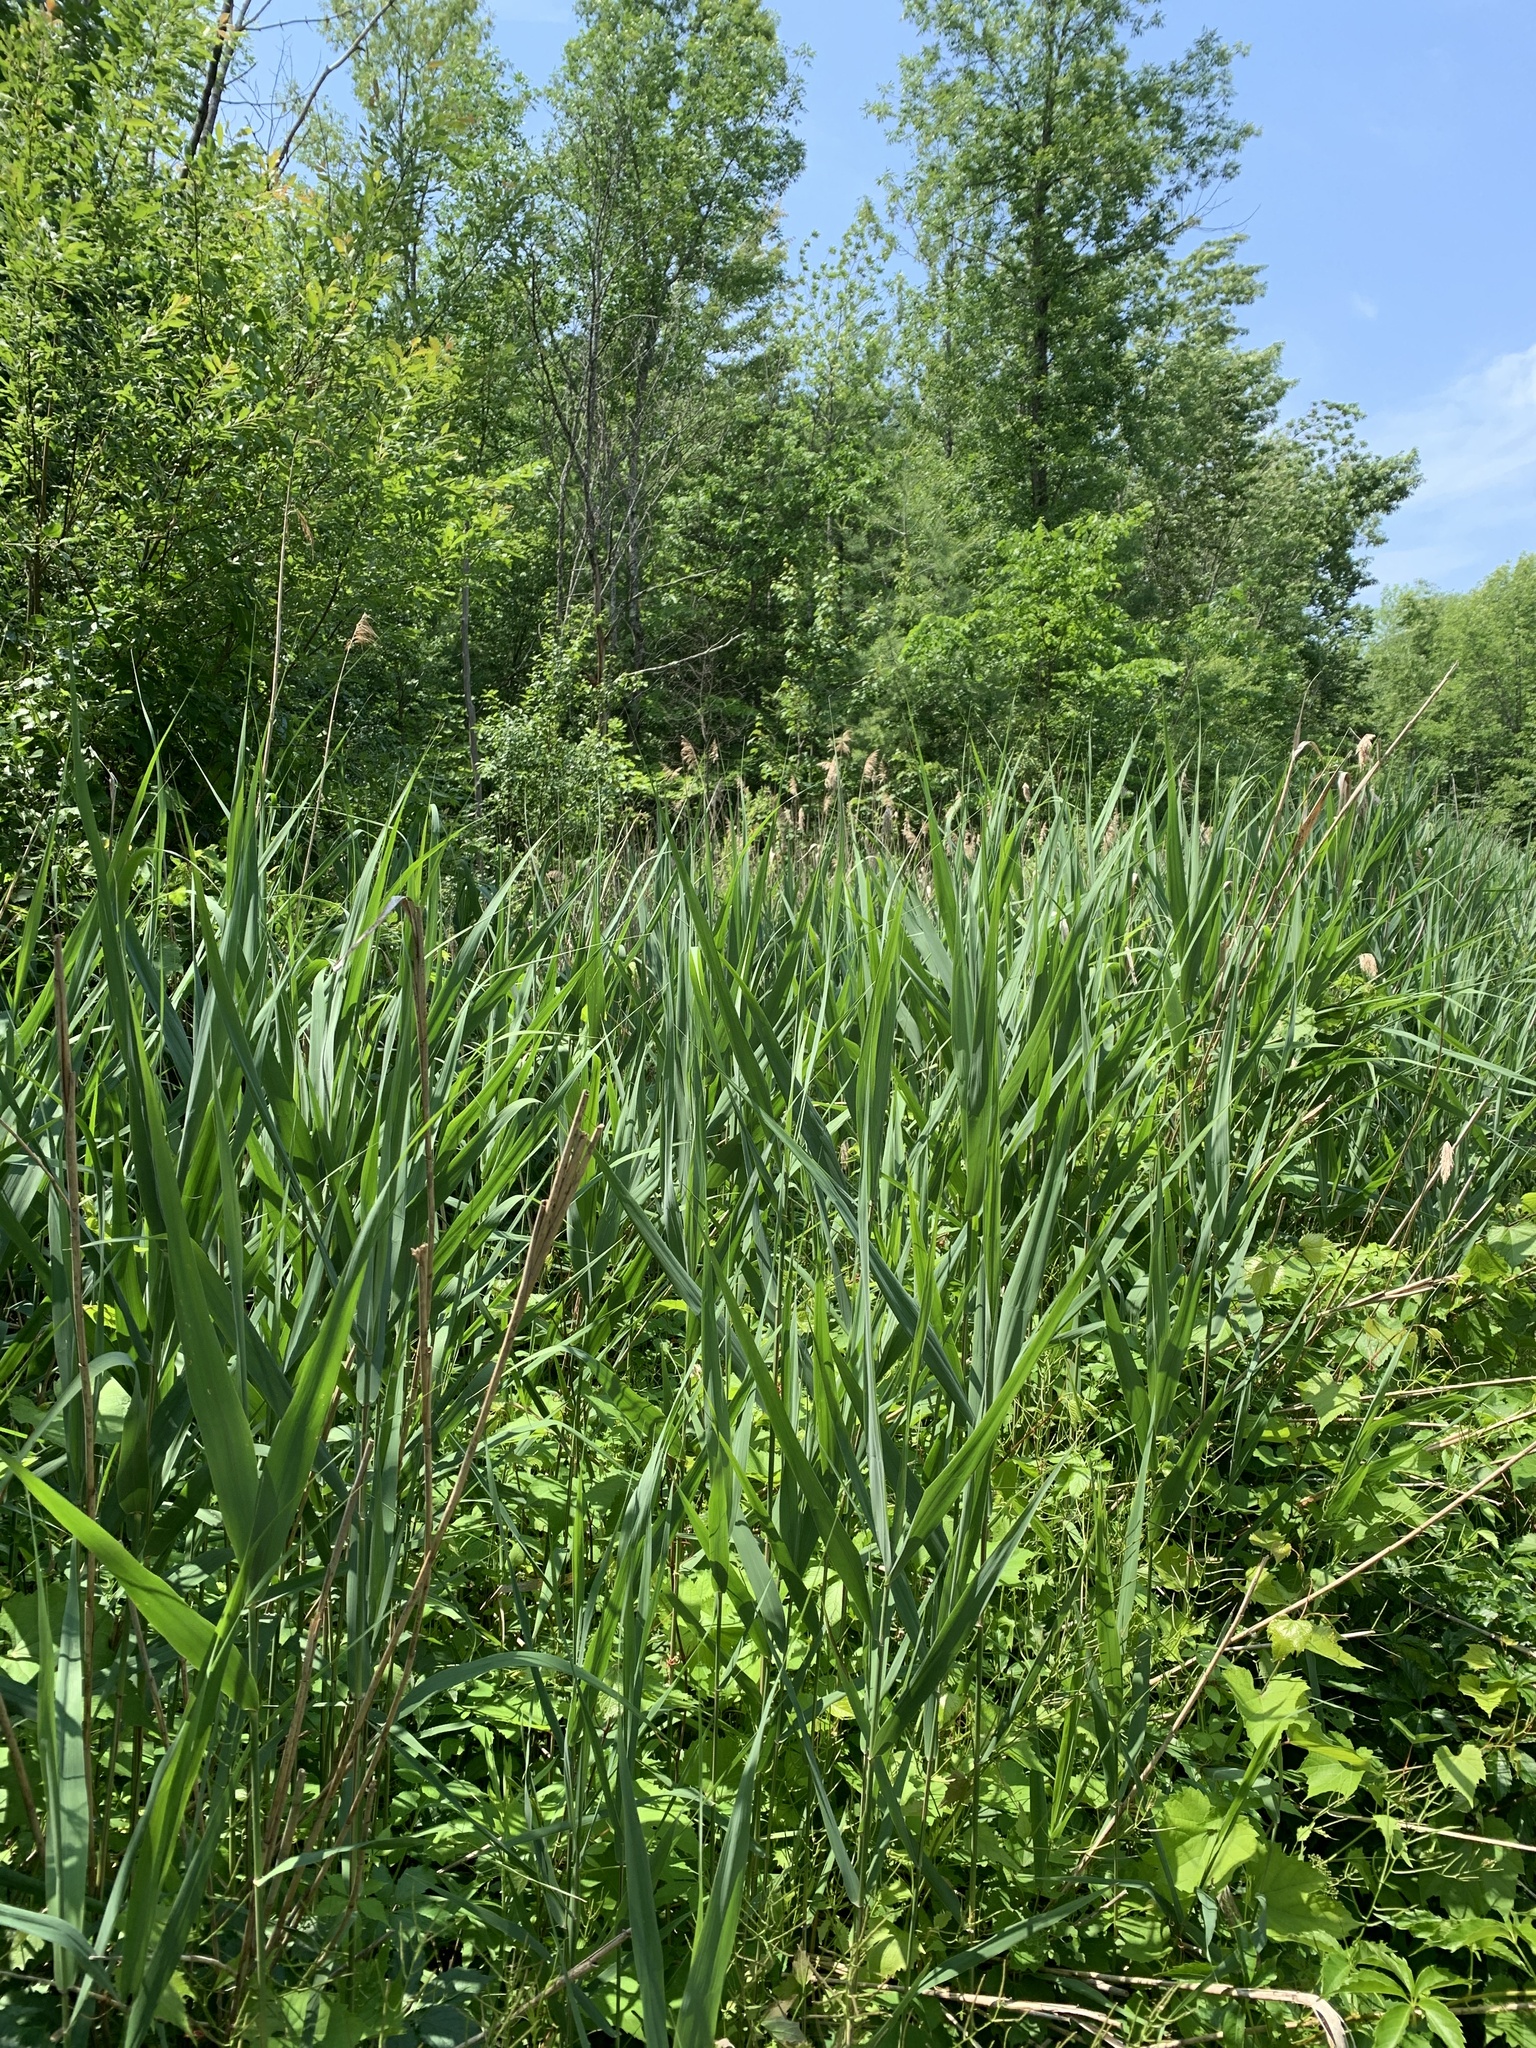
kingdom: Plantae
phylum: Tracheophyta
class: Liliopsida
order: Poales
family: Poaceae
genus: Phragmites
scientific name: Phragmites australis
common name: Common reed
